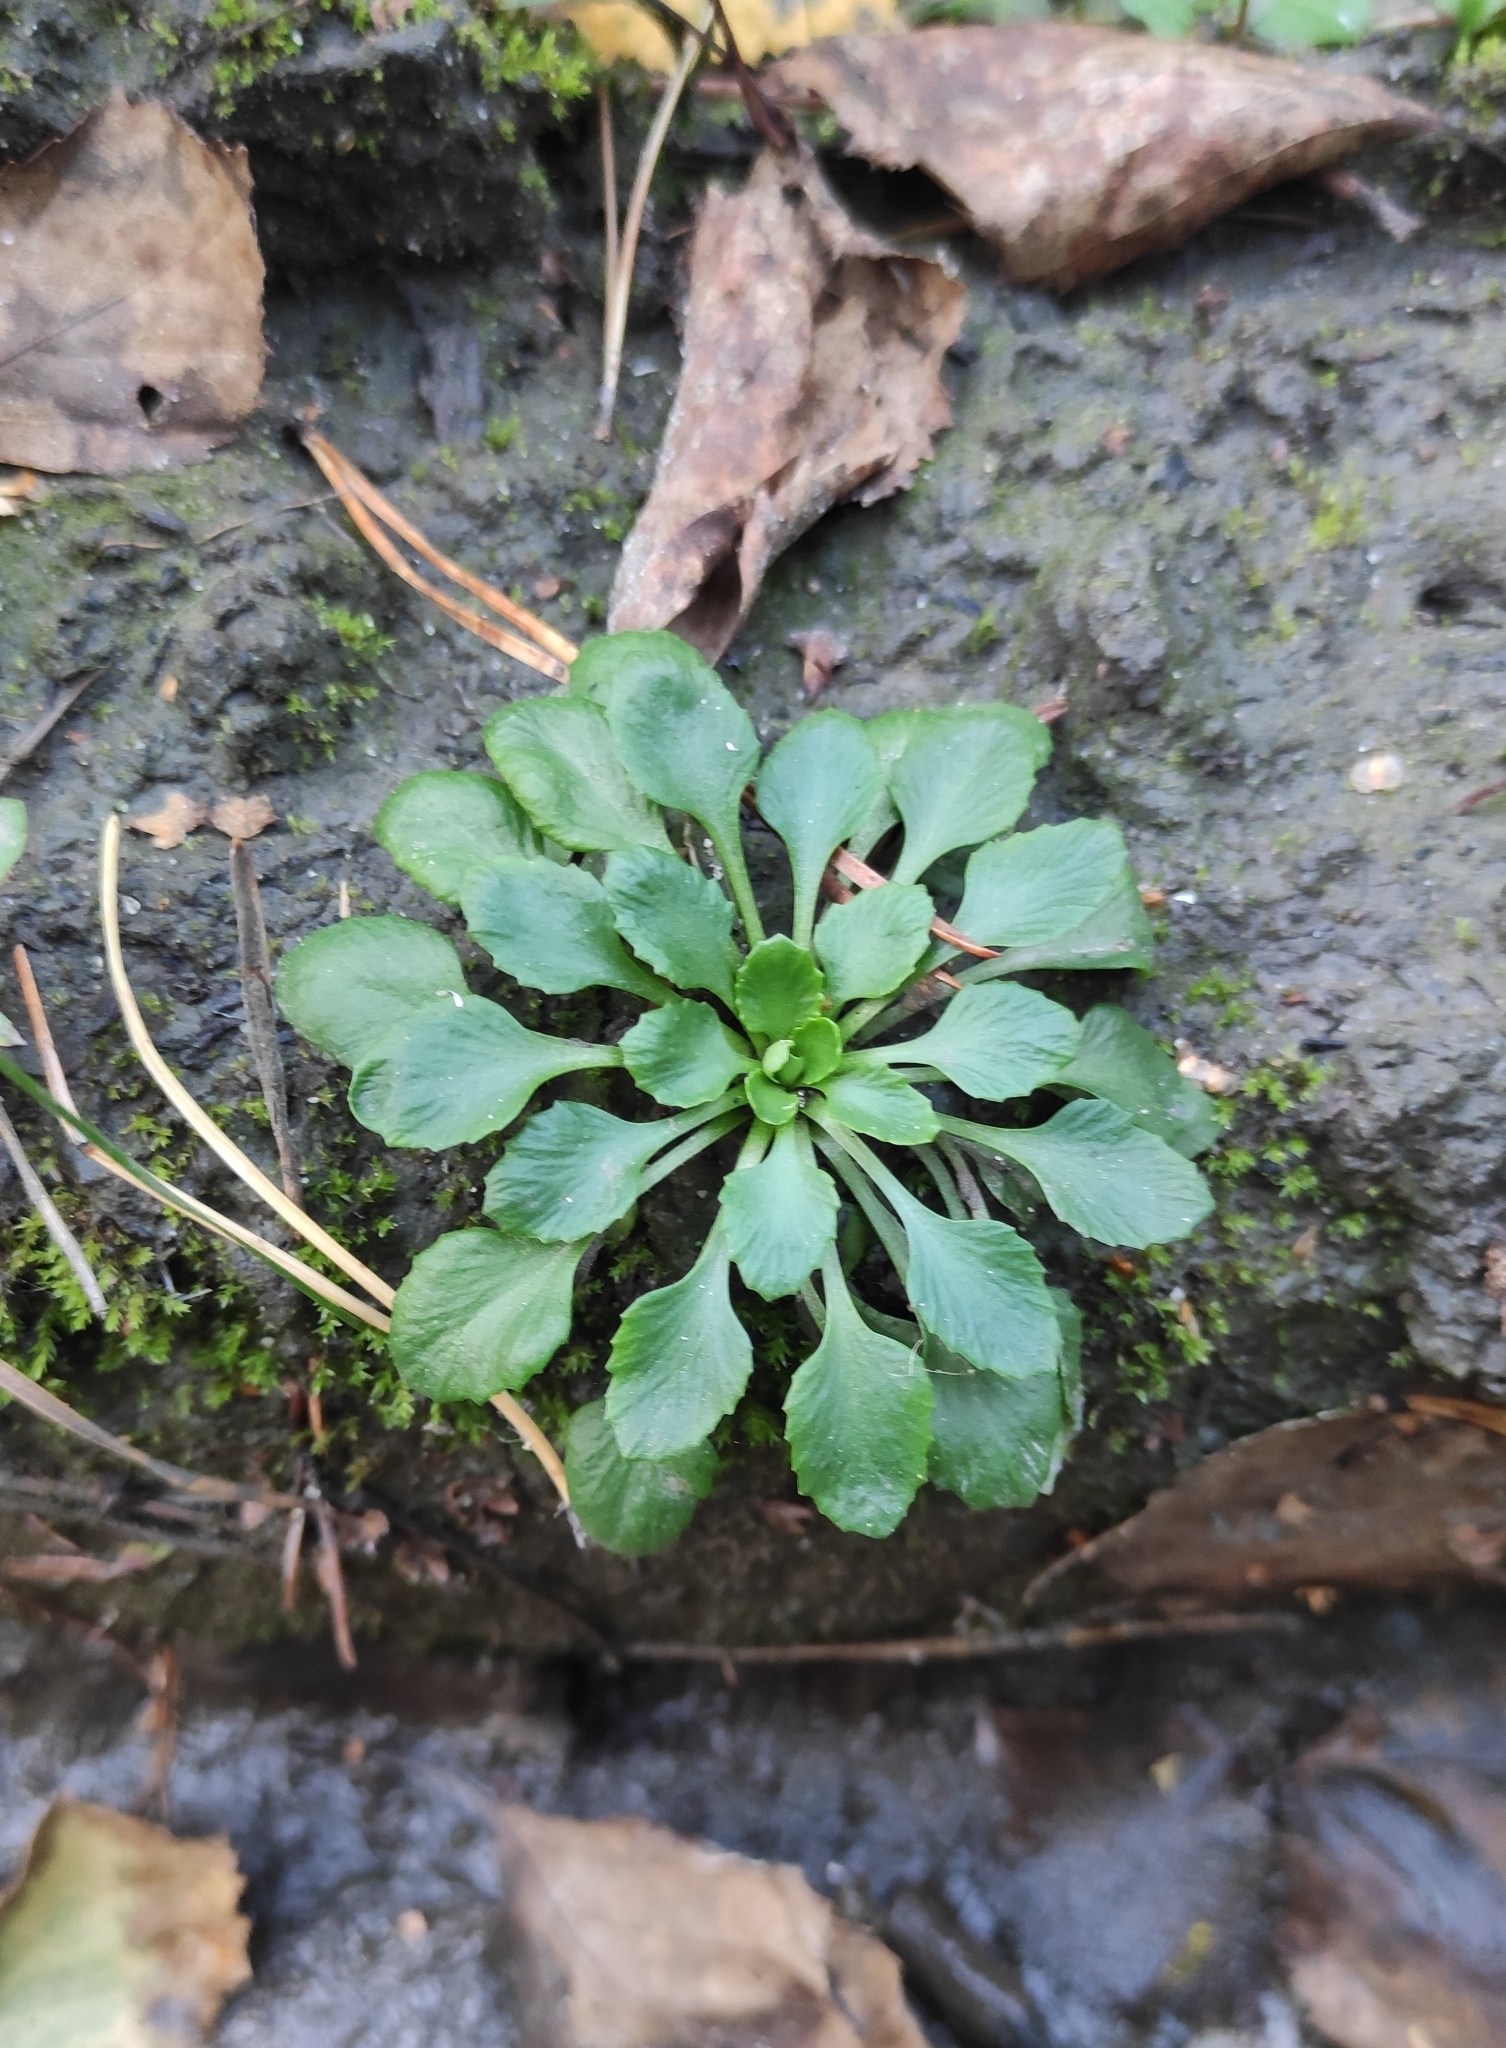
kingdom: Plantae
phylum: Tracheophyta
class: Magnoliopsida
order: Ericales
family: Primulaceae
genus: Androsace
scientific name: Androsace filiformis
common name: Filiform rock jasmine
